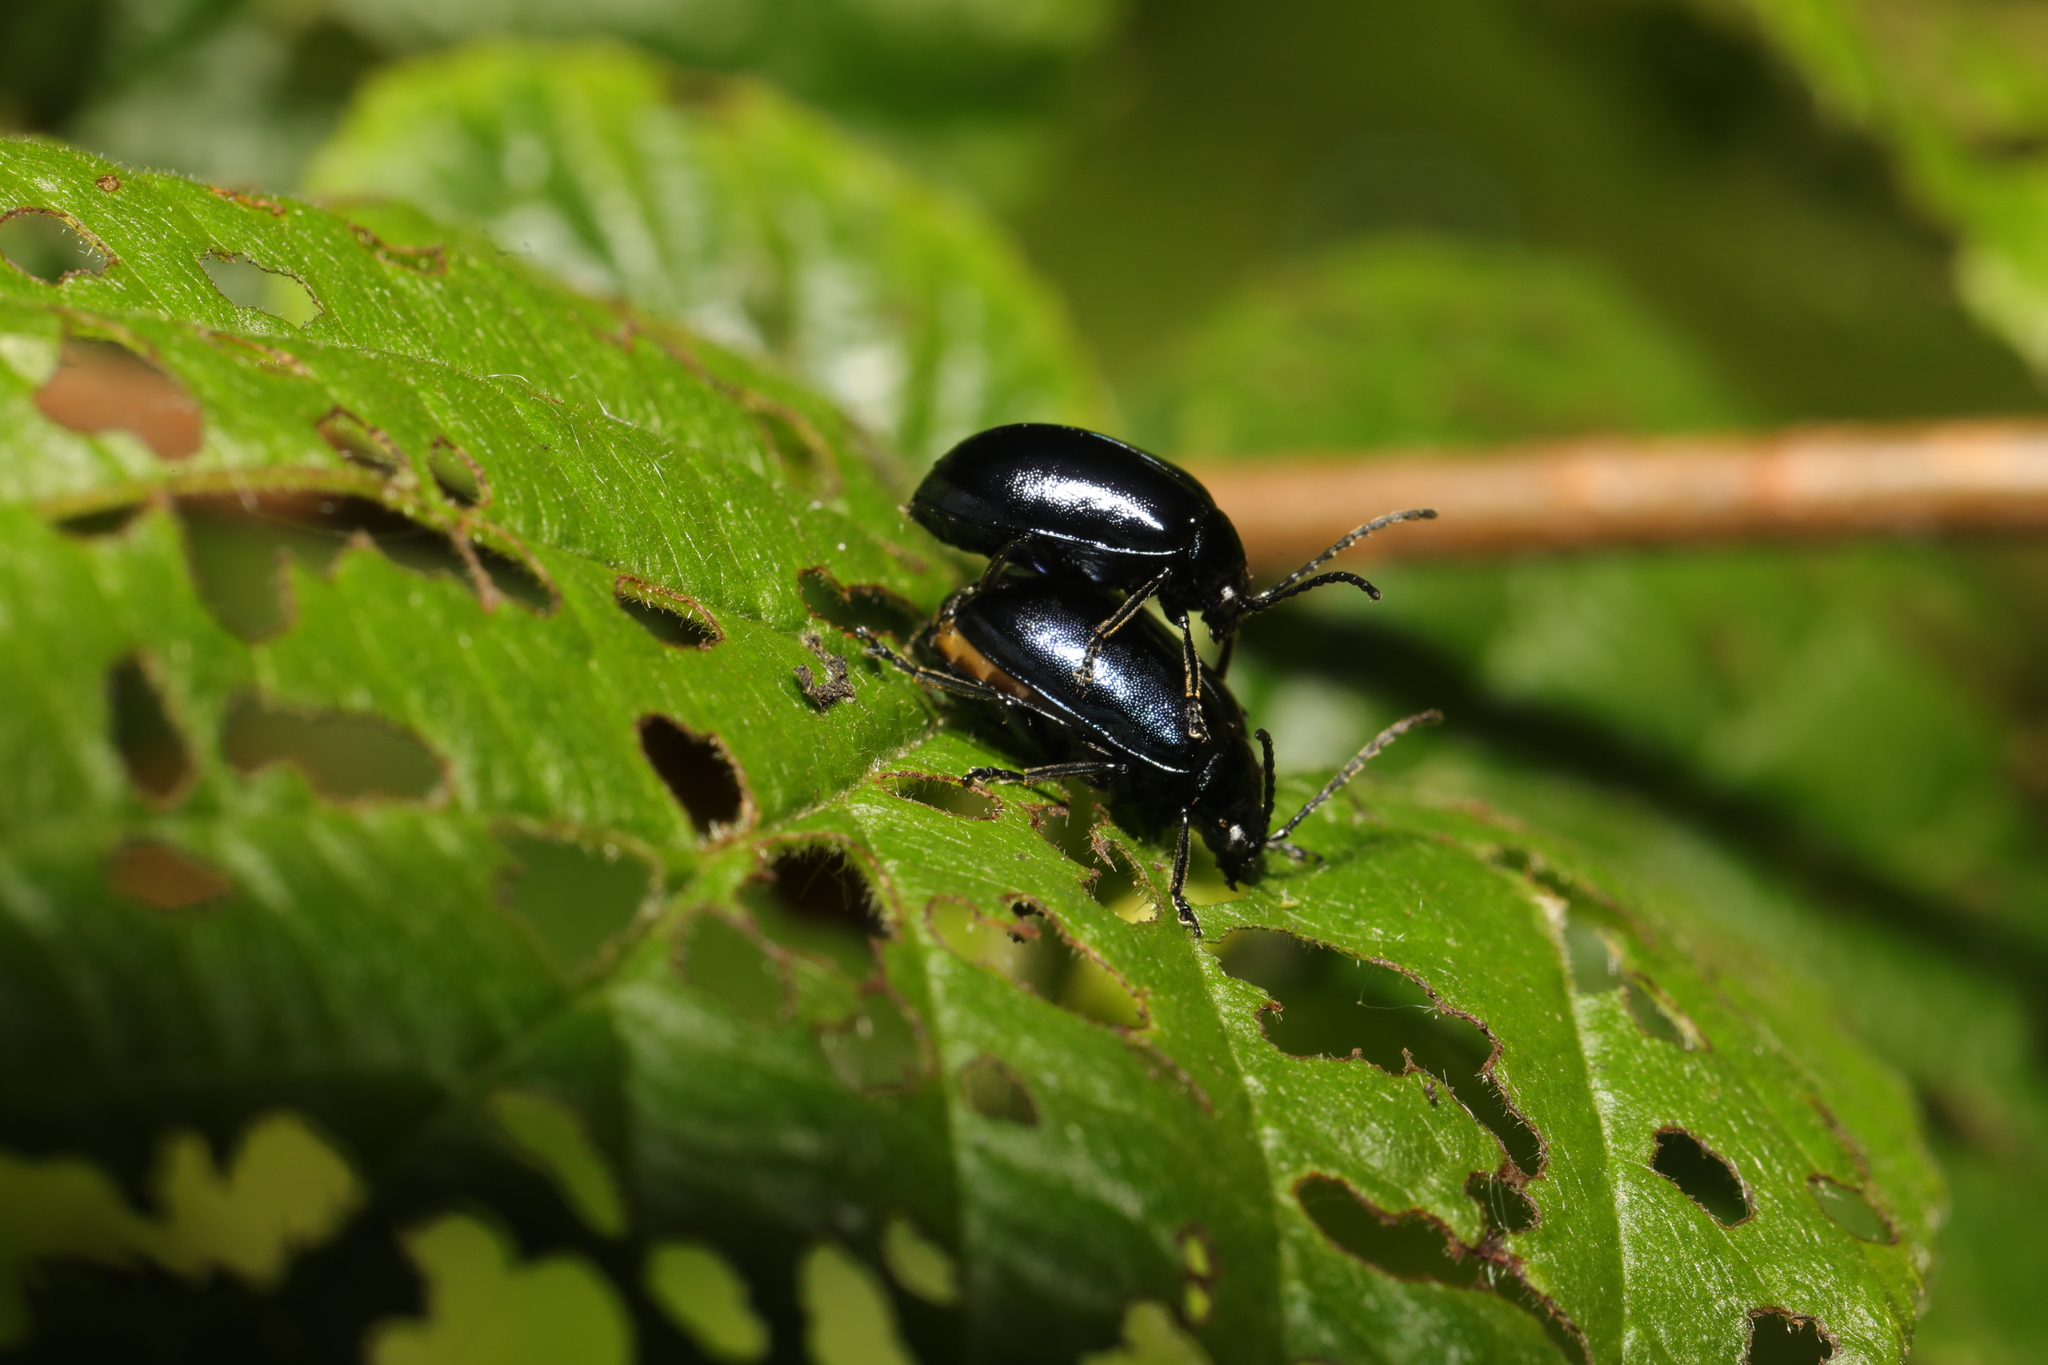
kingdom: Animalia
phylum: Arthropoda
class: Insecta
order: Coleoptera
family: Chrysomelidae
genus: Agelastica
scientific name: Agelastica alni
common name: Alder leaf beetle
